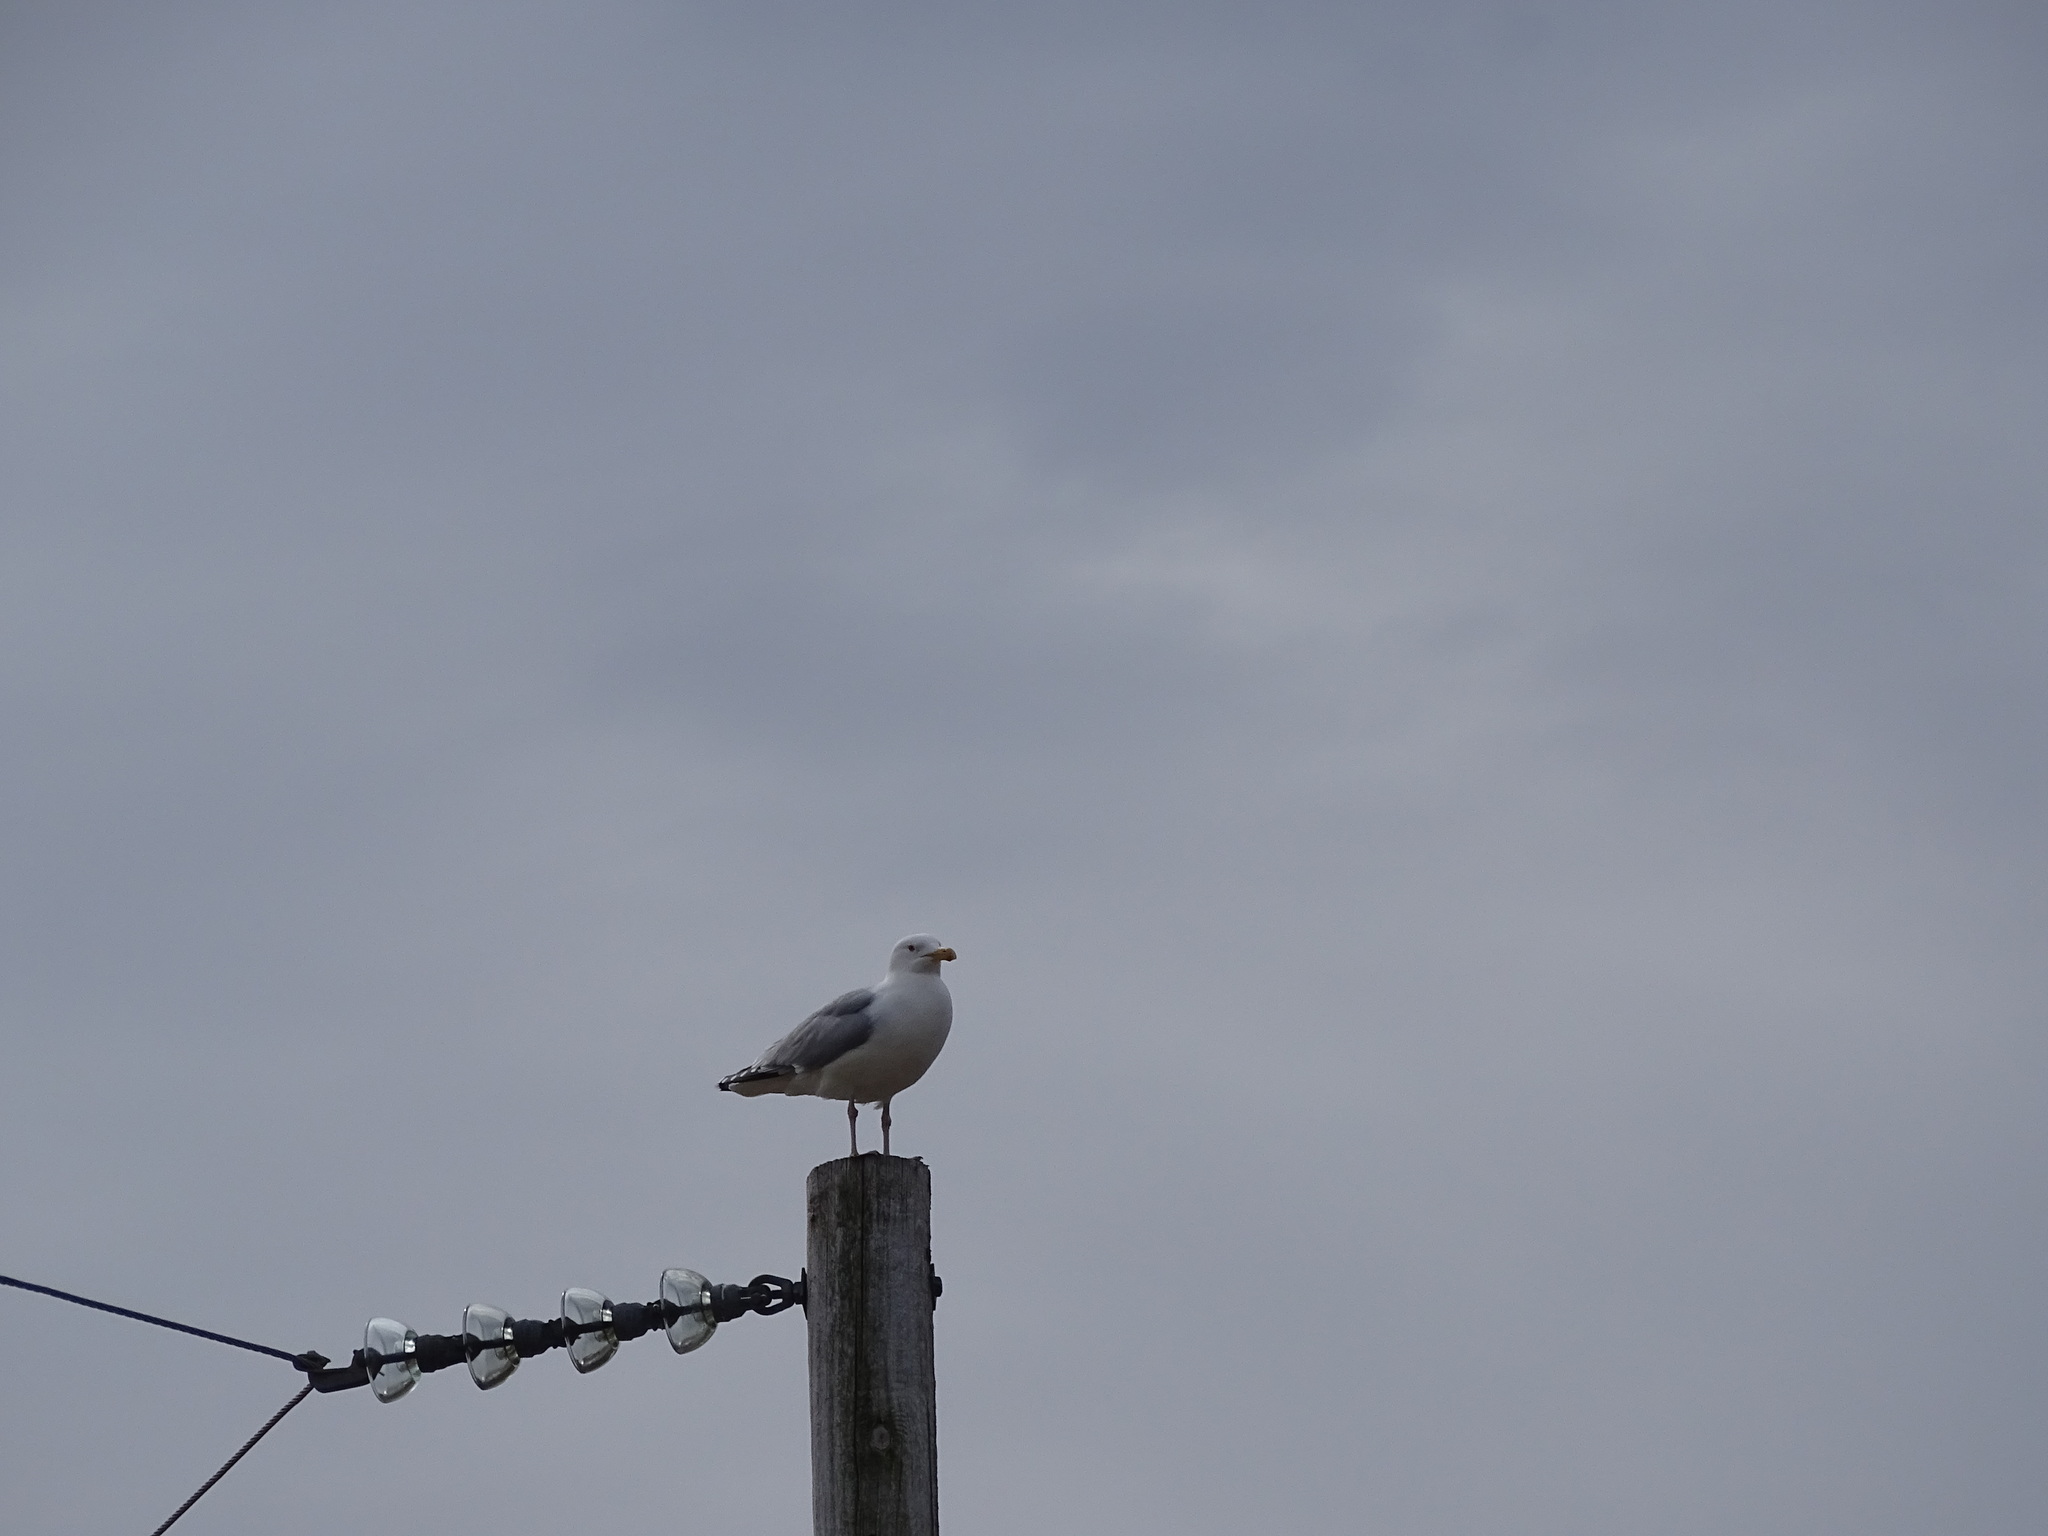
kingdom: Animalia
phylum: Chordata
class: Aves
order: Charadriiformes
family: Laridae
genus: Larus
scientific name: Larus smithsonianus
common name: American herring gull
